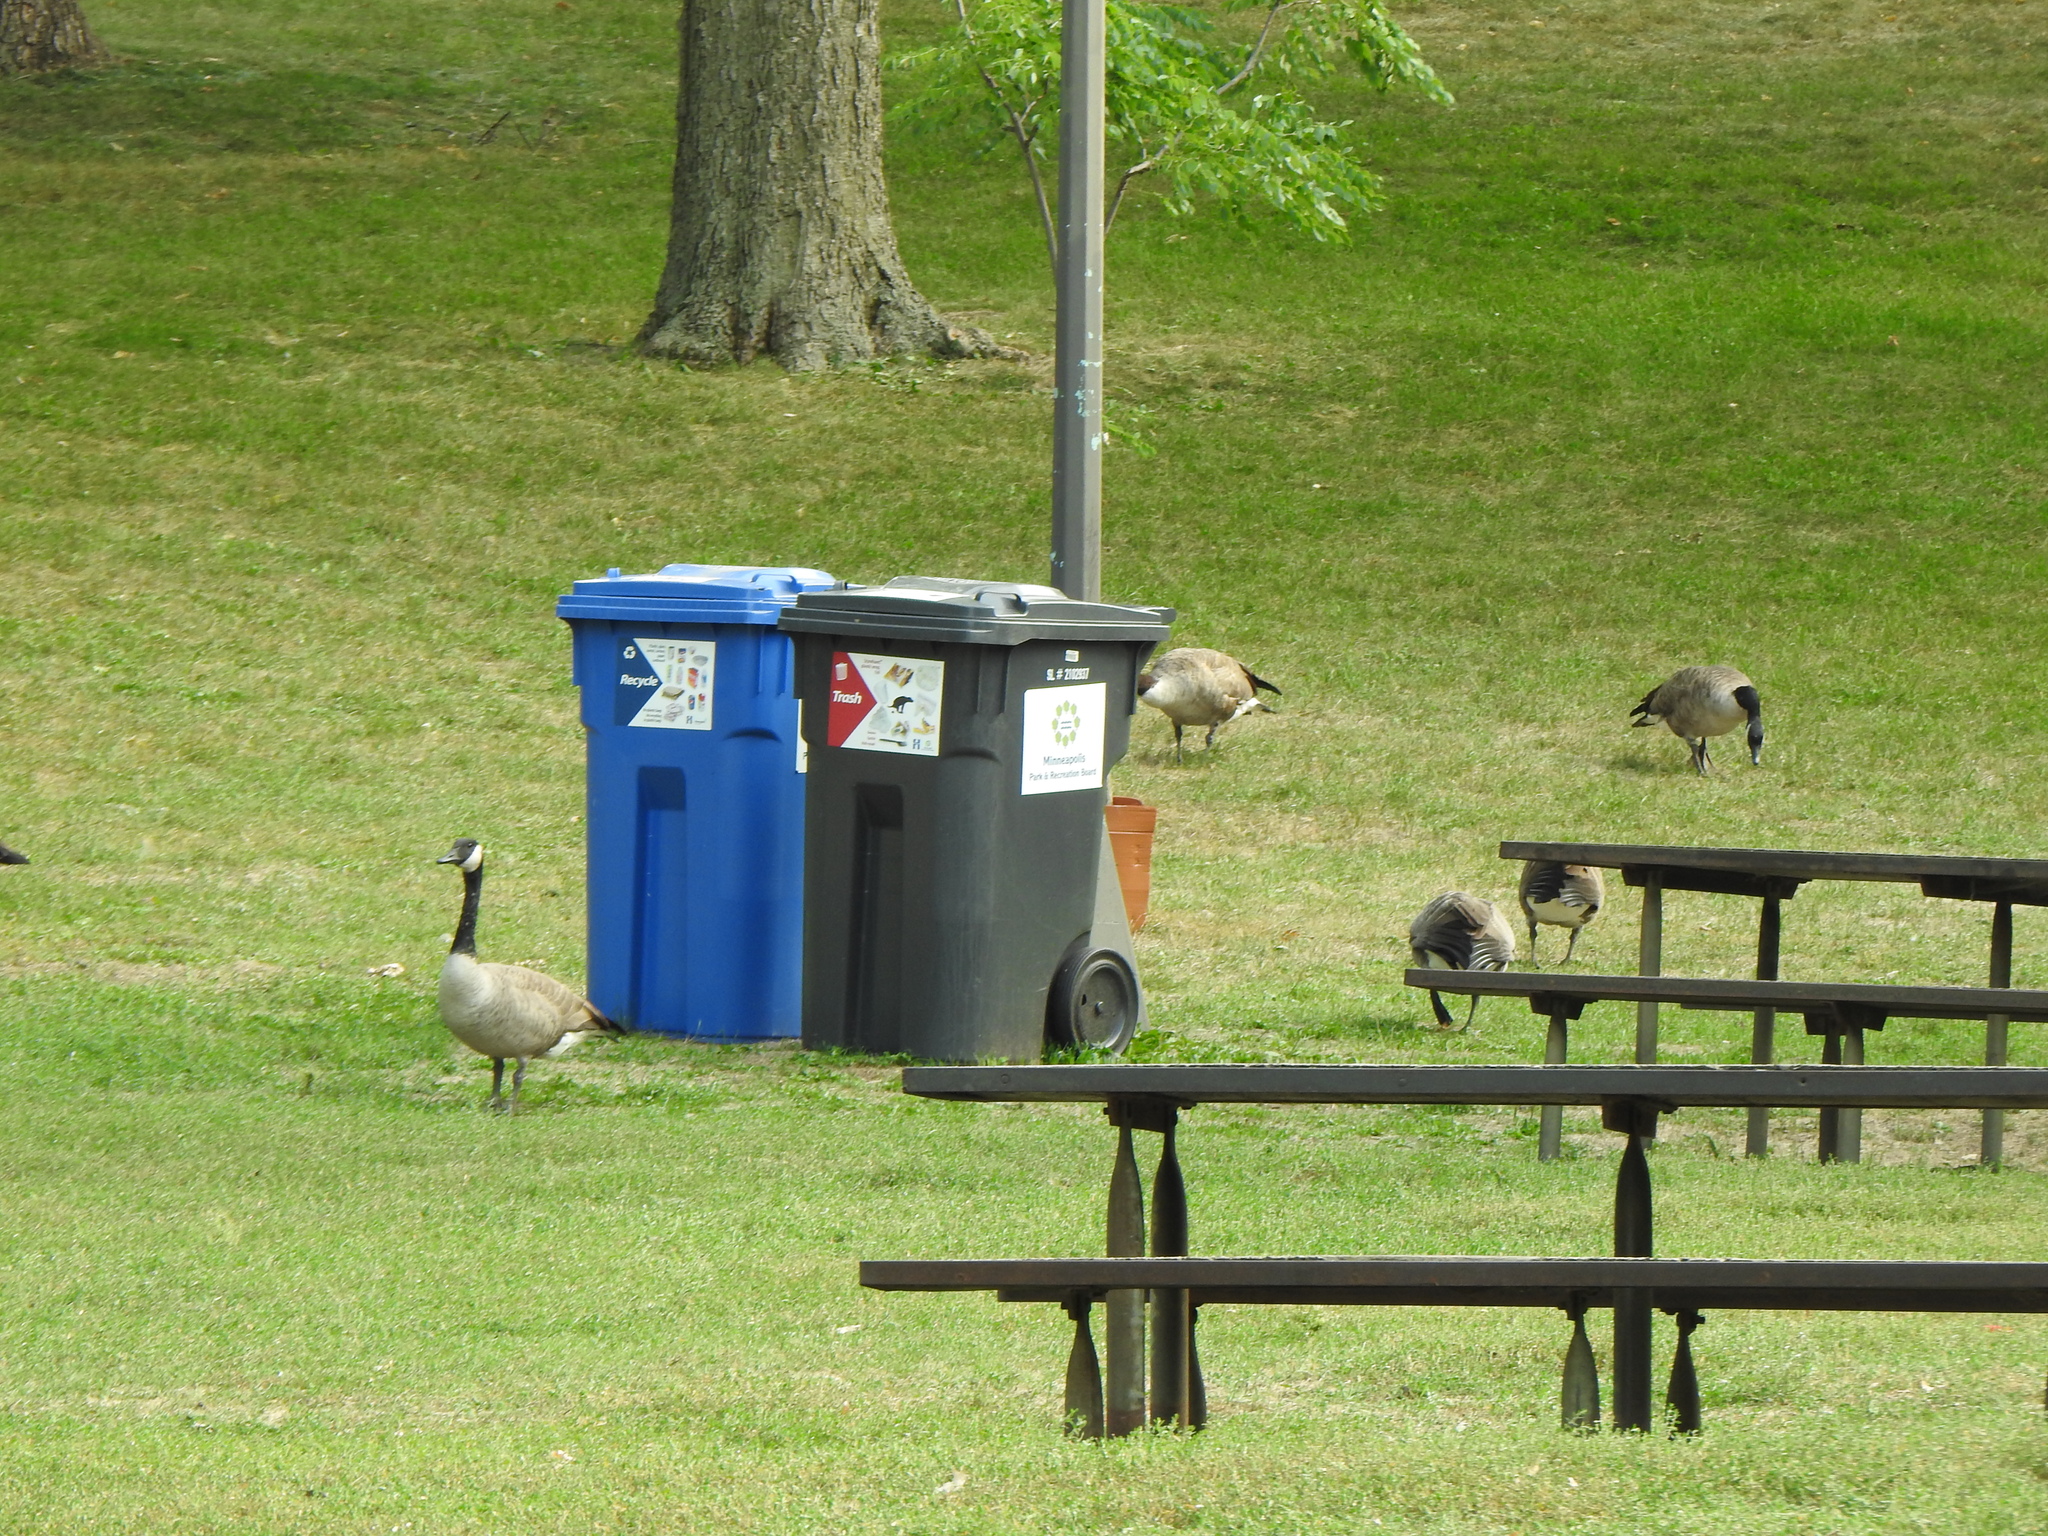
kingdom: Animalia
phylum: Chordata
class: Aves
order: Anseriformes
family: Anatidae
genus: Branta
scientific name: Branta canadensis
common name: Canada goose
